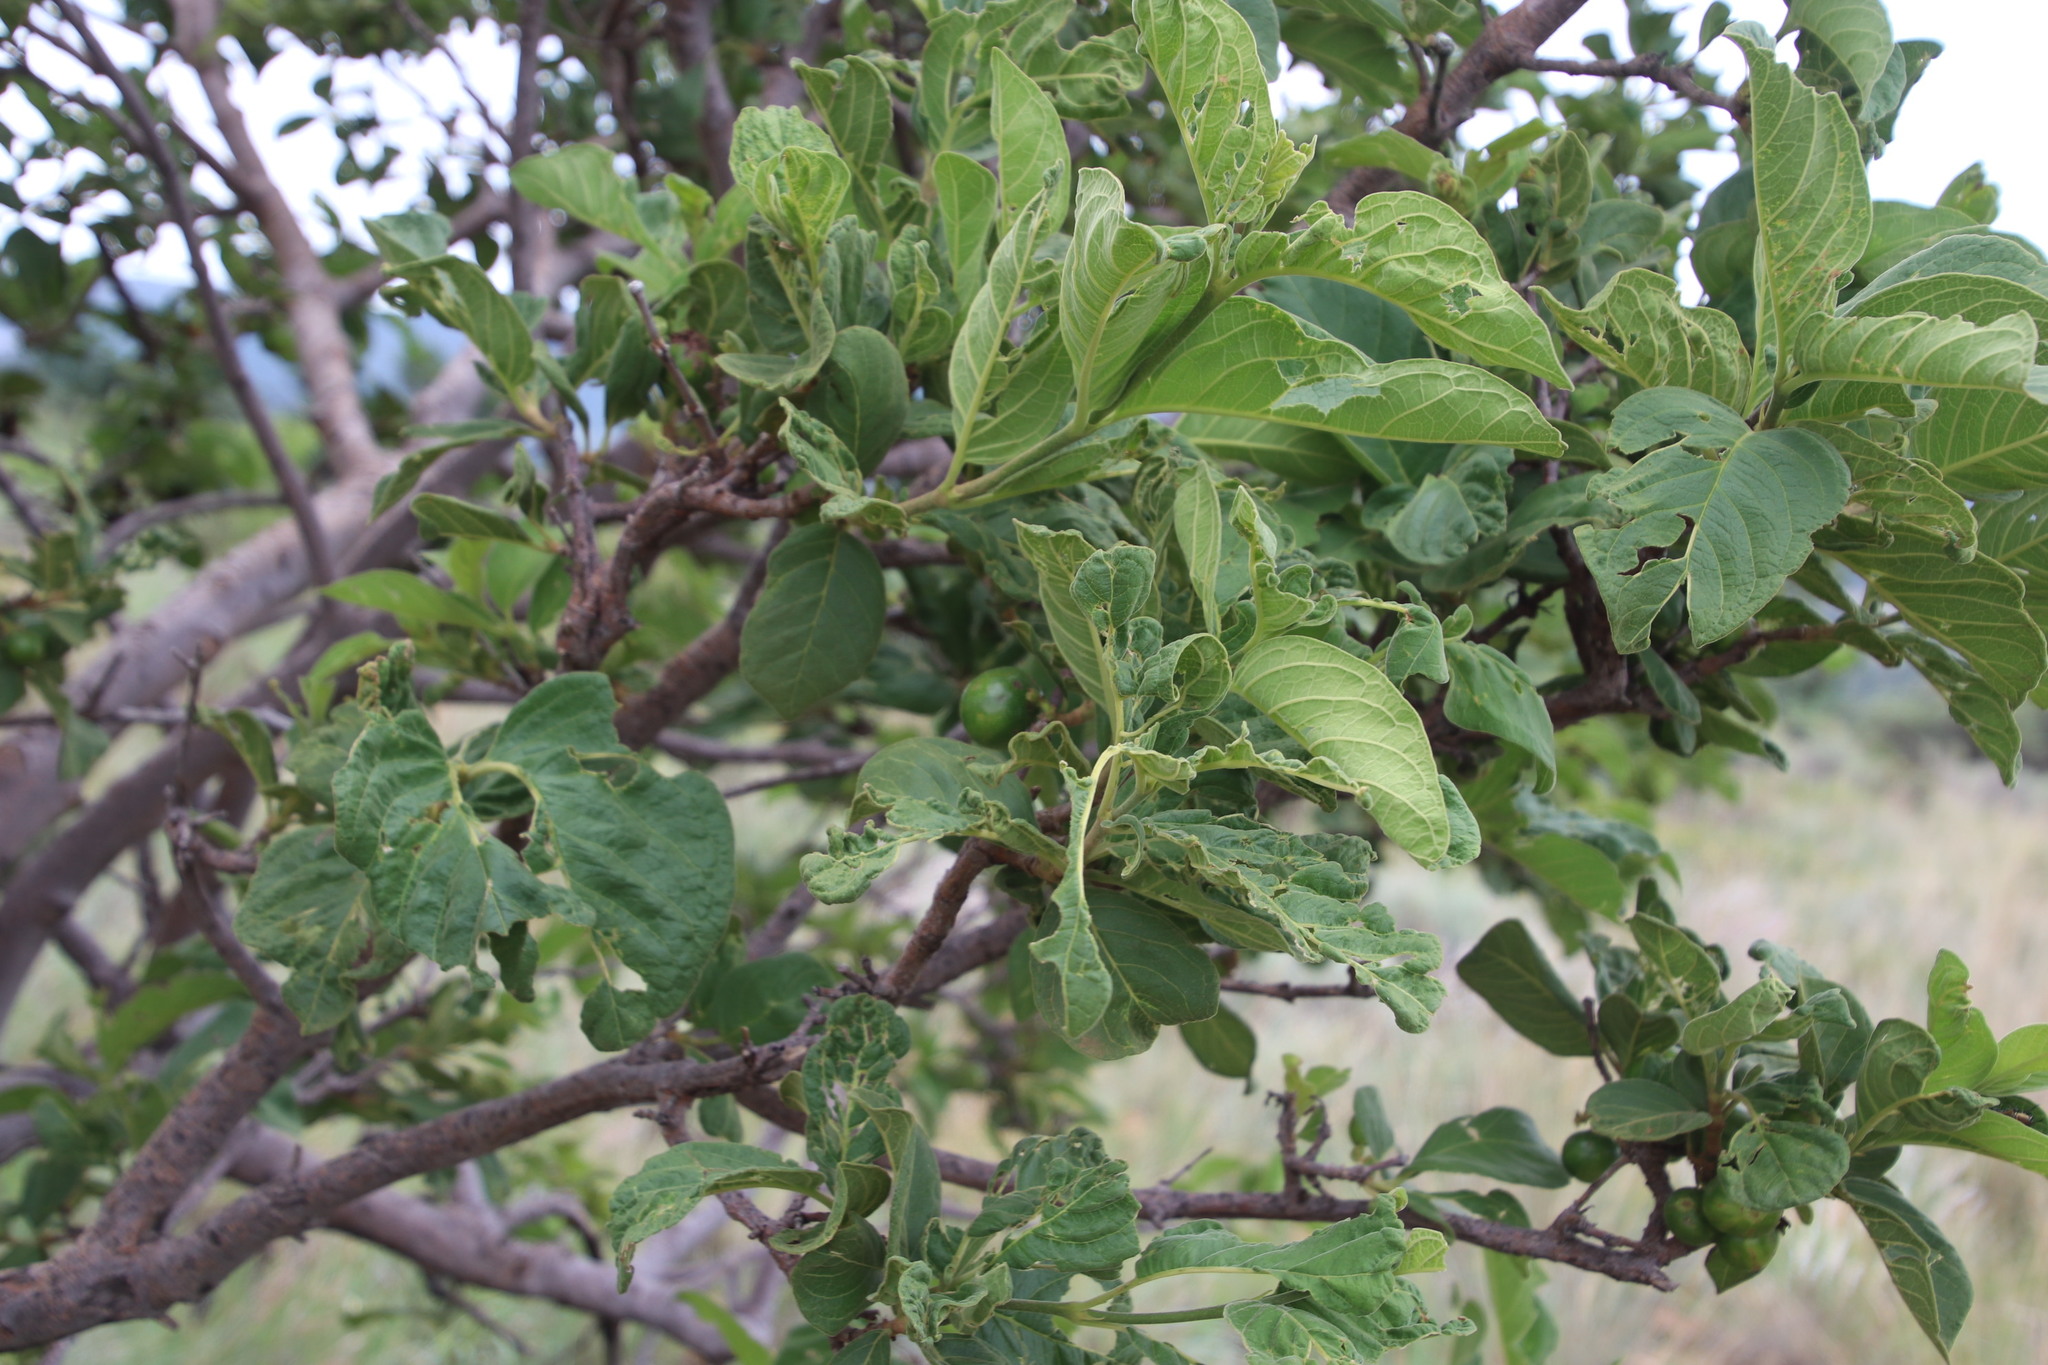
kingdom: Plantae
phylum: Tracheophyta
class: Magnoliopsida
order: Gentianales
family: Rubiaceae
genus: Vangueria
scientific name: Vangueria infausta
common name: Medlar
